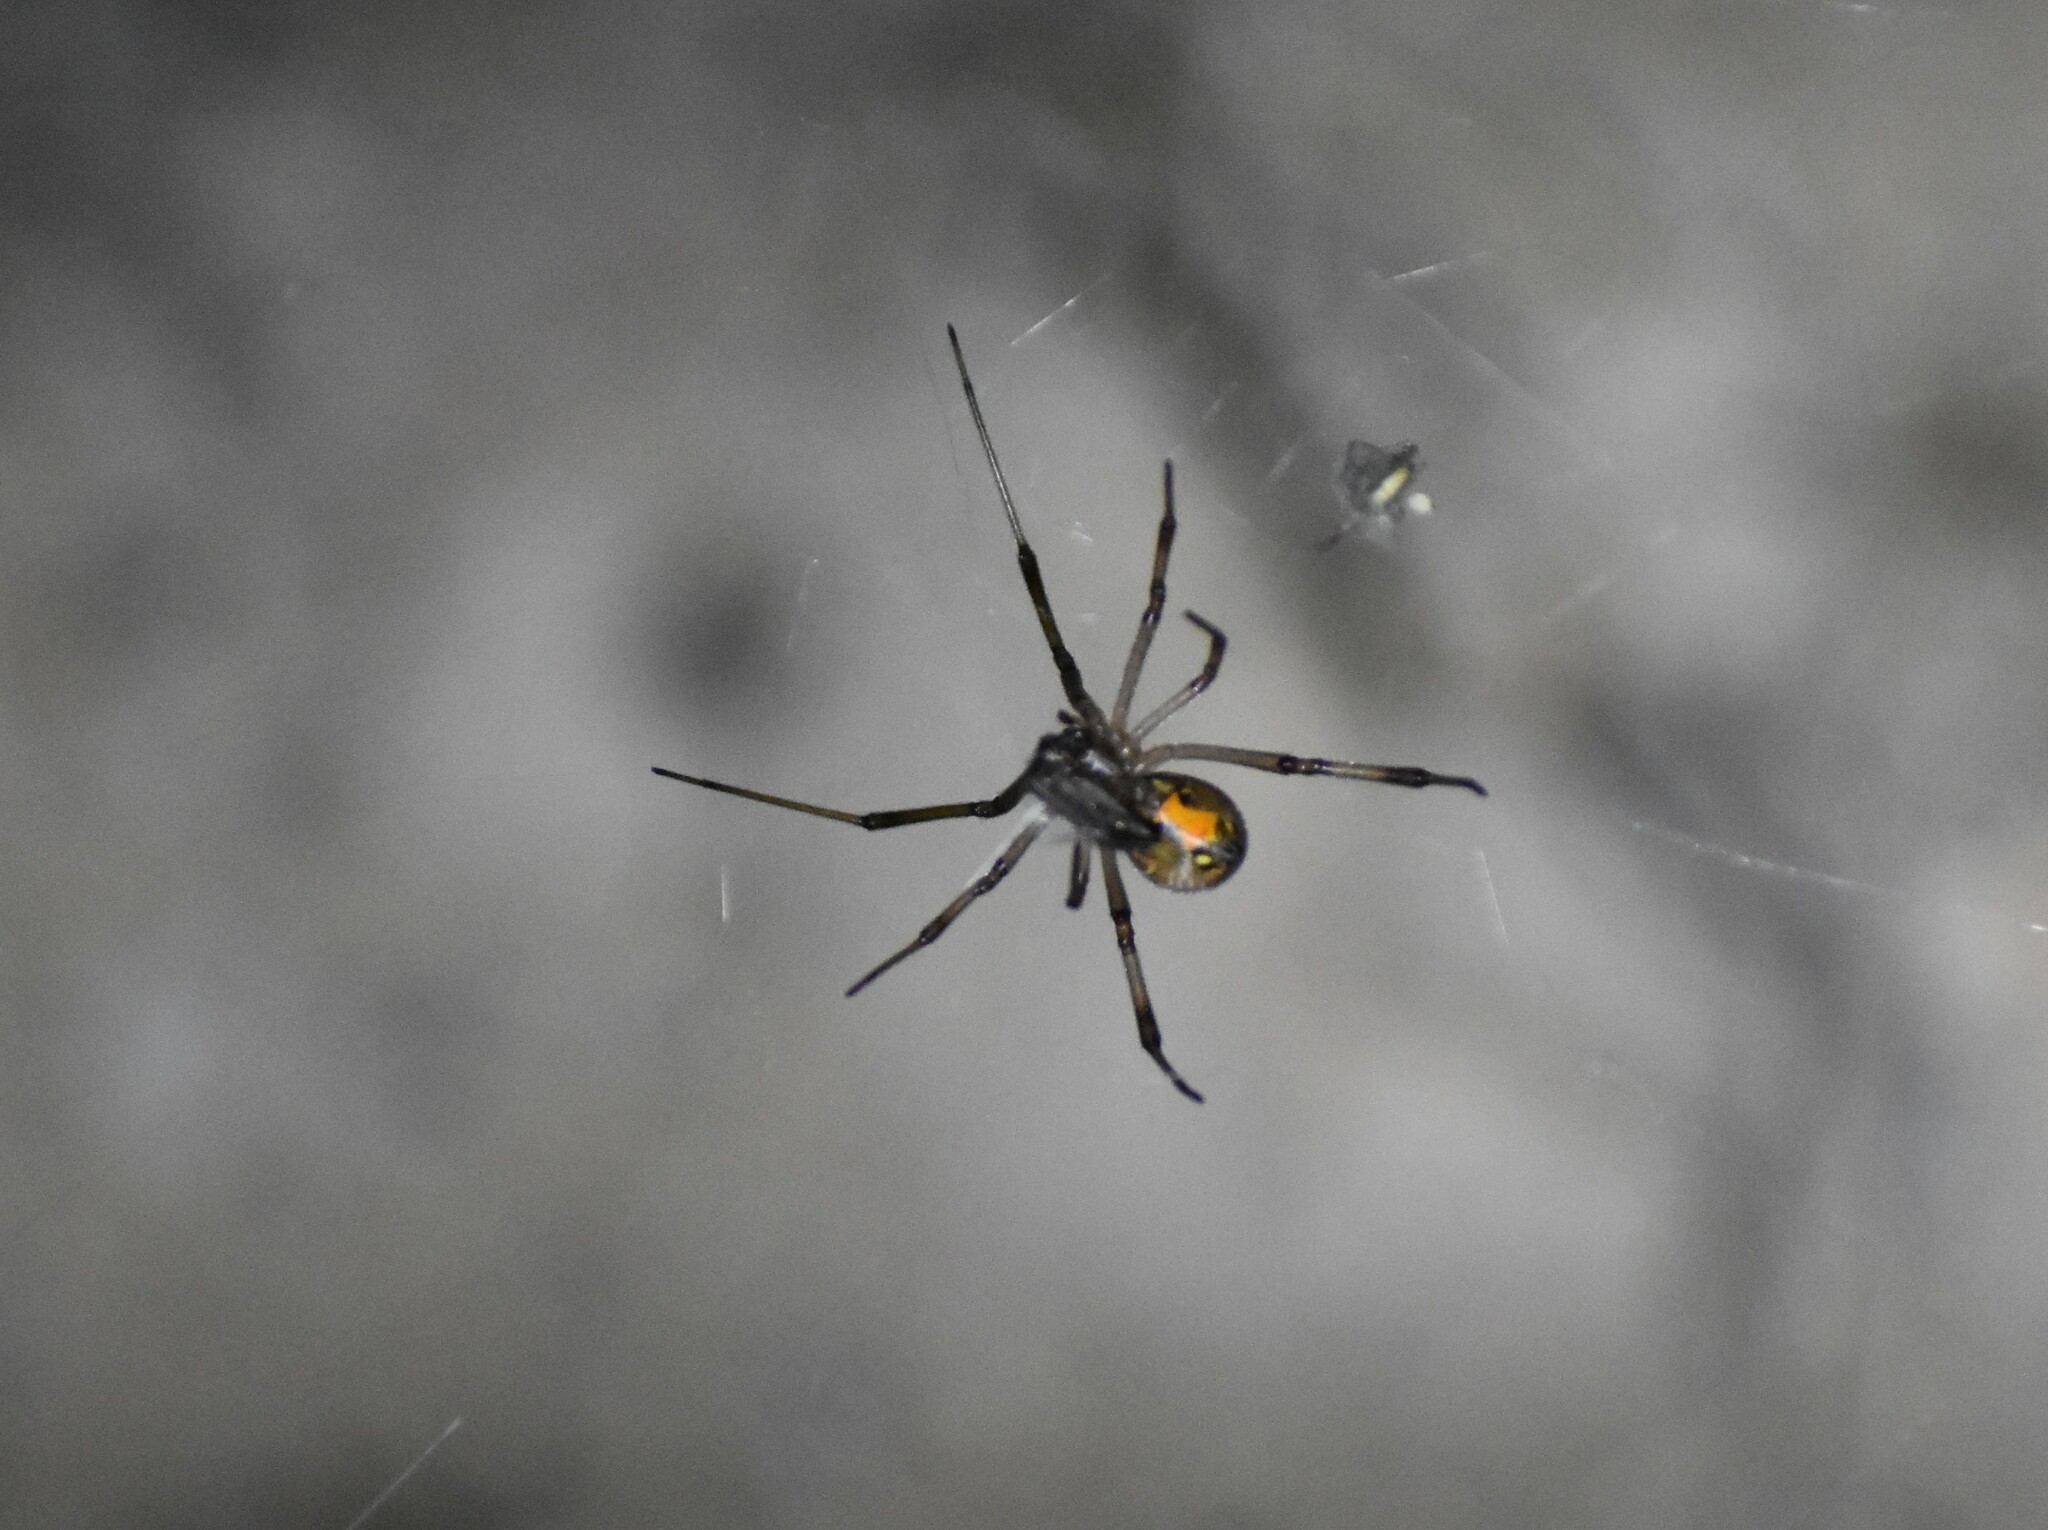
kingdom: Animalia
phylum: Arthropoda
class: Arachnida
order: Araneae
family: Theridiidae
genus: Latrodectus
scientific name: Latrodectus geometricus
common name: Brown widow spider
